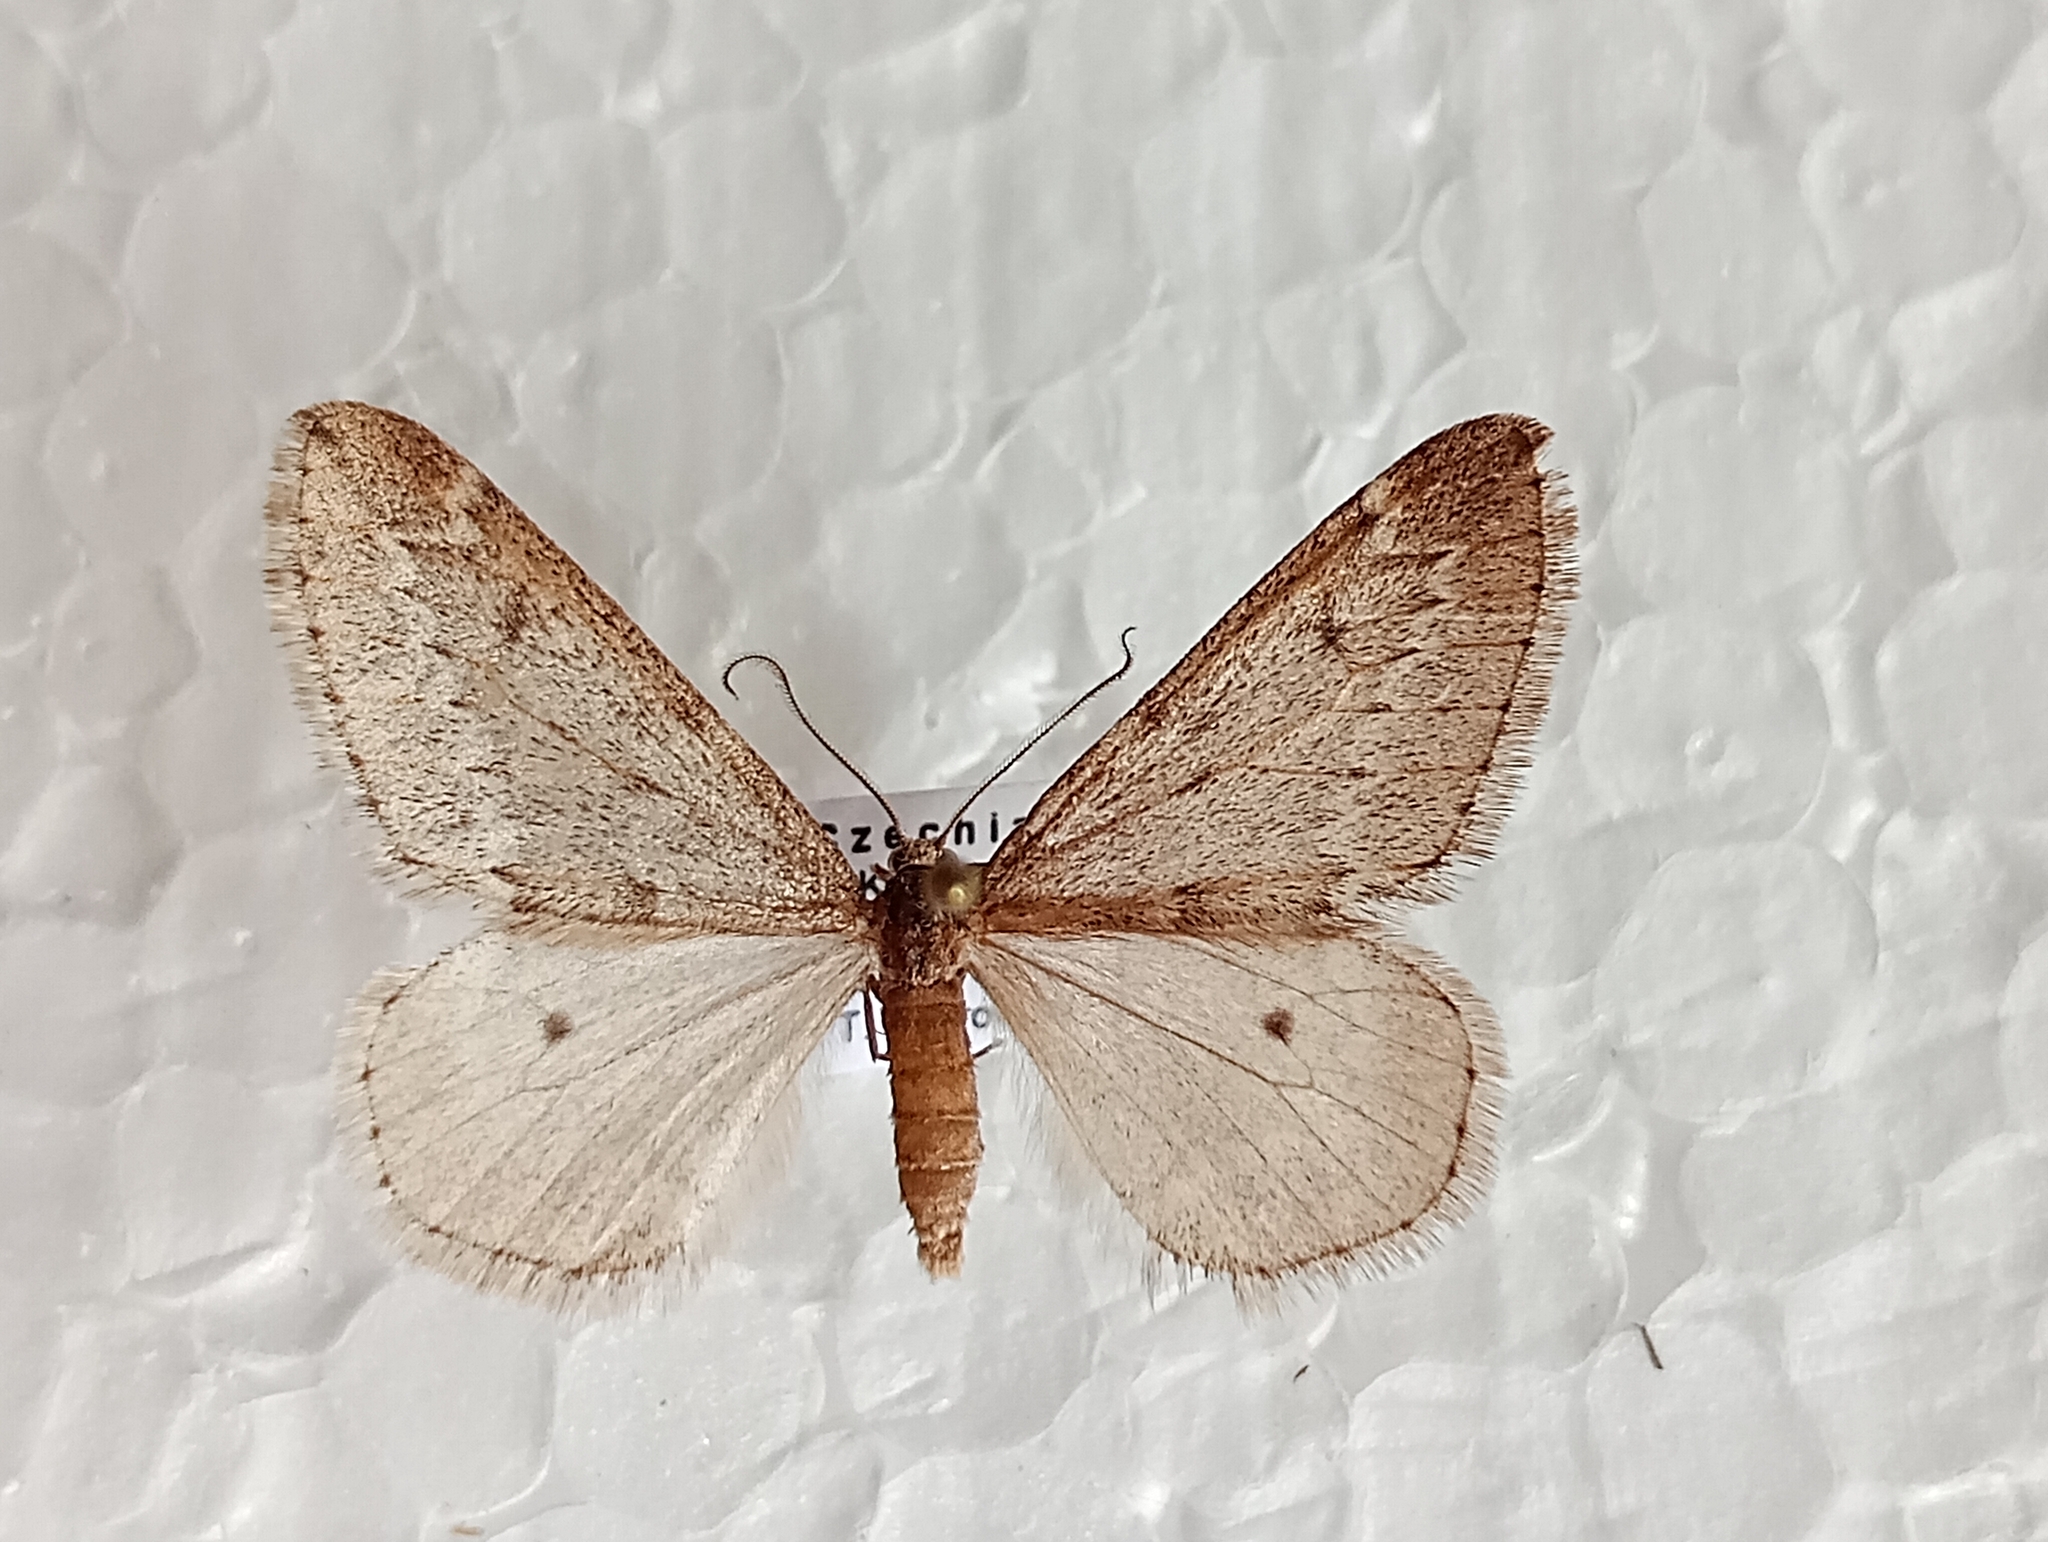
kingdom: Animalia
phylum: Arthropoda
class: Insecta
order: Lepidoptera
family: Geometridae
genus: Alsophila
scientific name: Alsophila aescularia
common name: March moth
